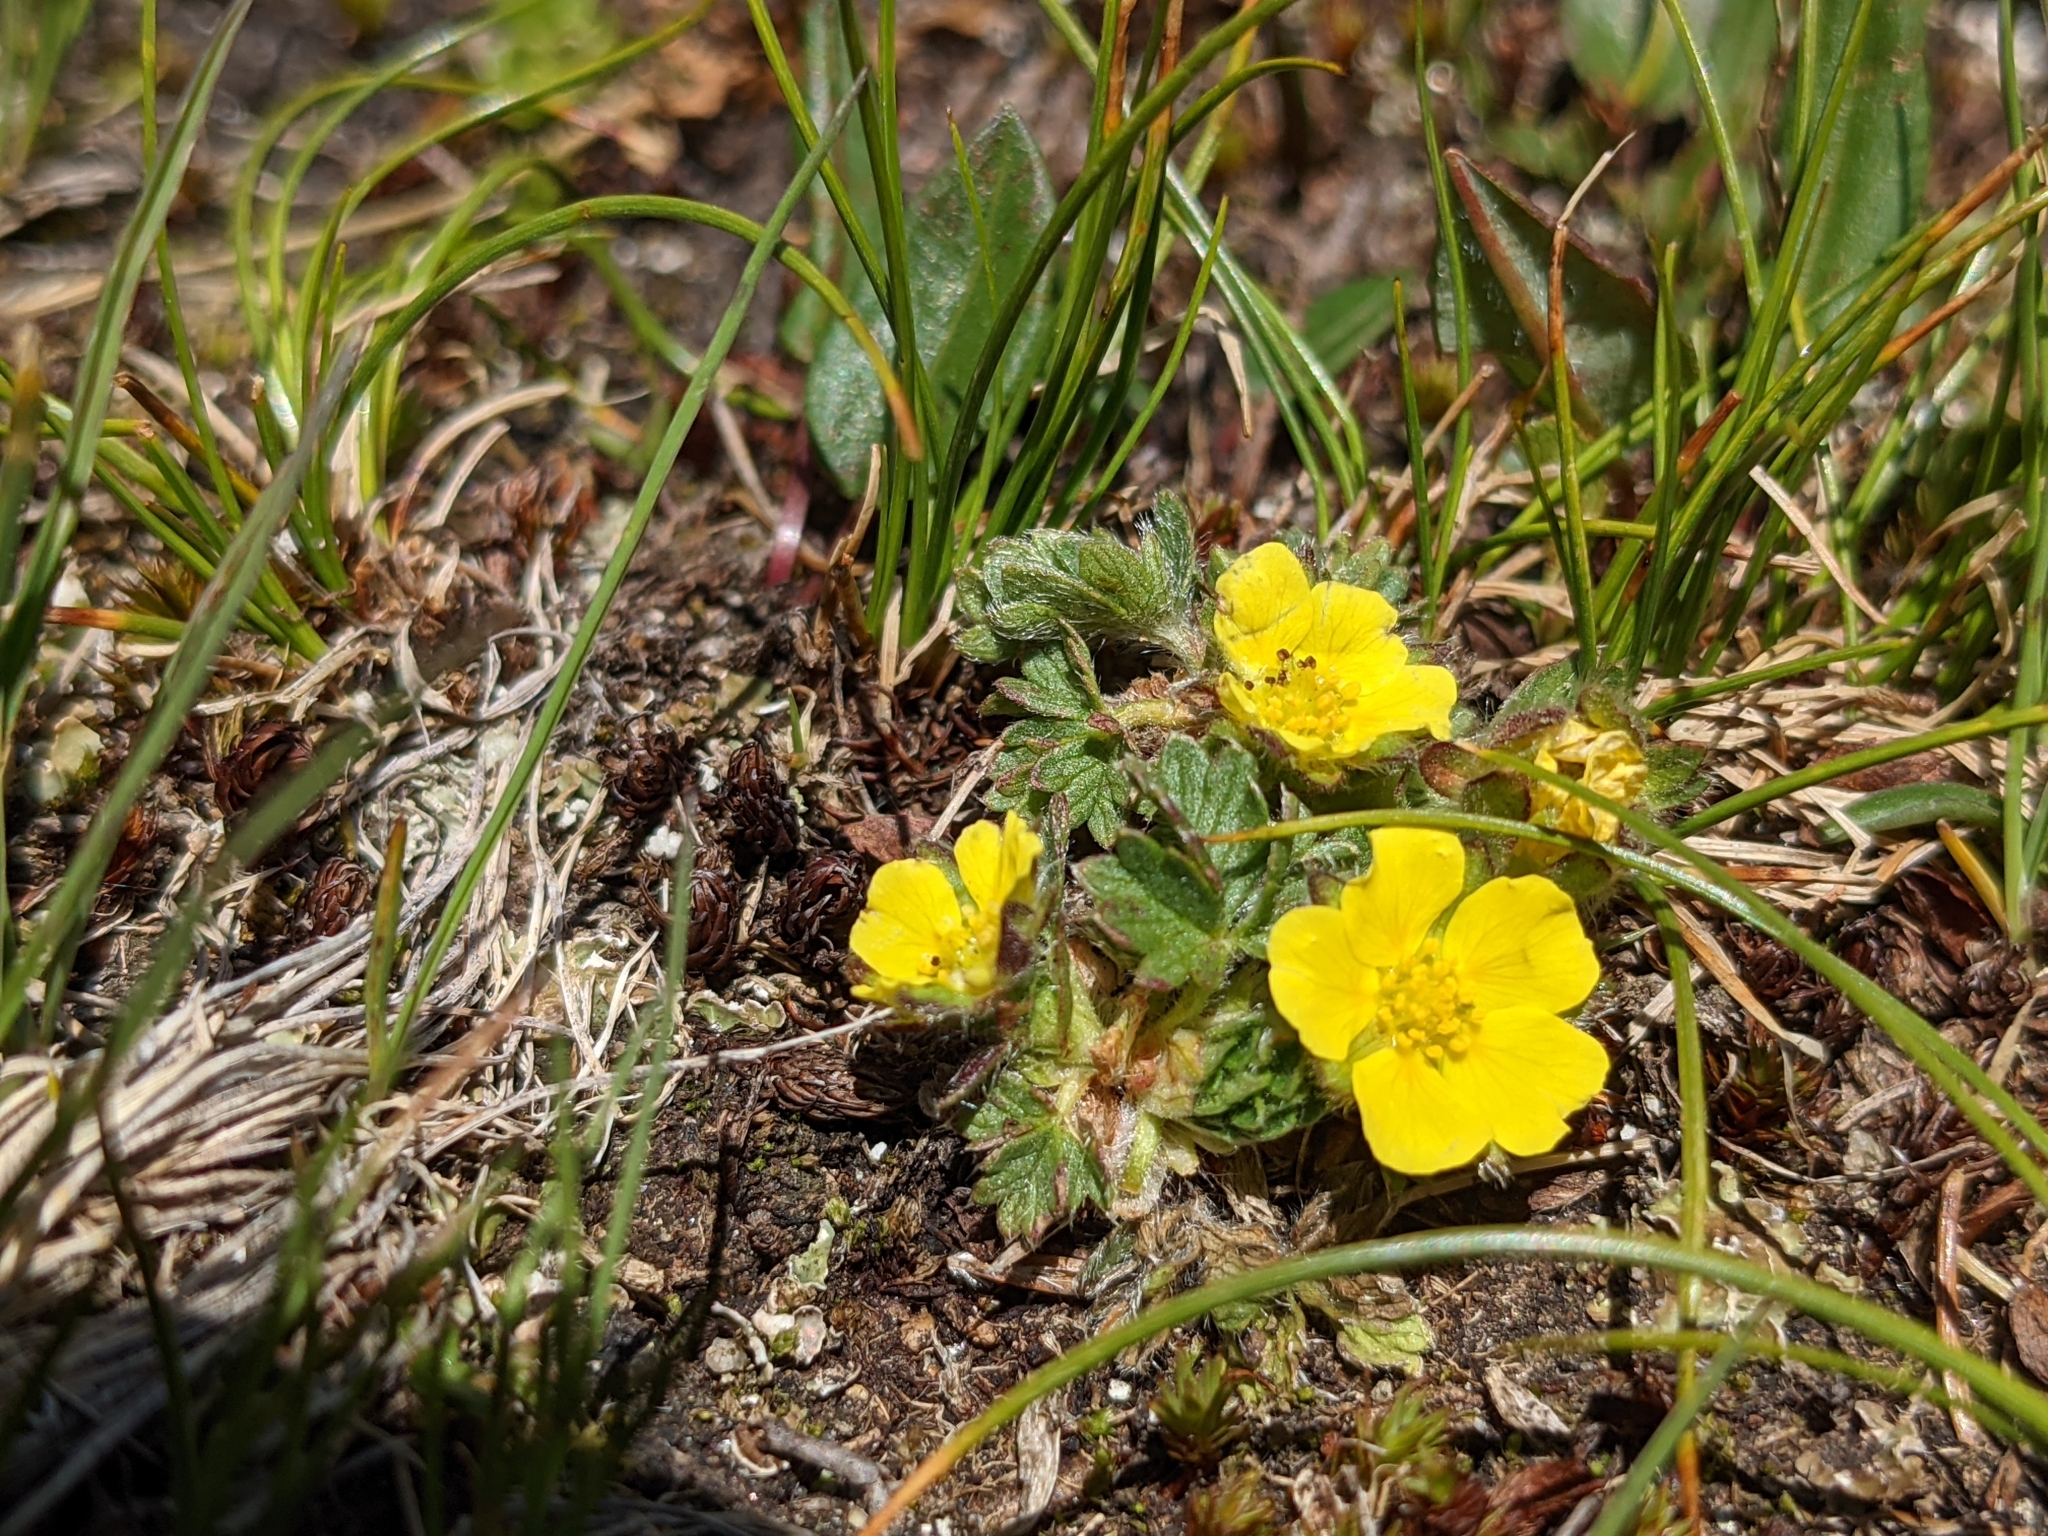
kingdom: Plantae
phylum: Tracheophyta
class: Magnoliopsida
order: Rosales
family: Rosaceae
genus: Potentilla
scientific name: Potentilla frigida
